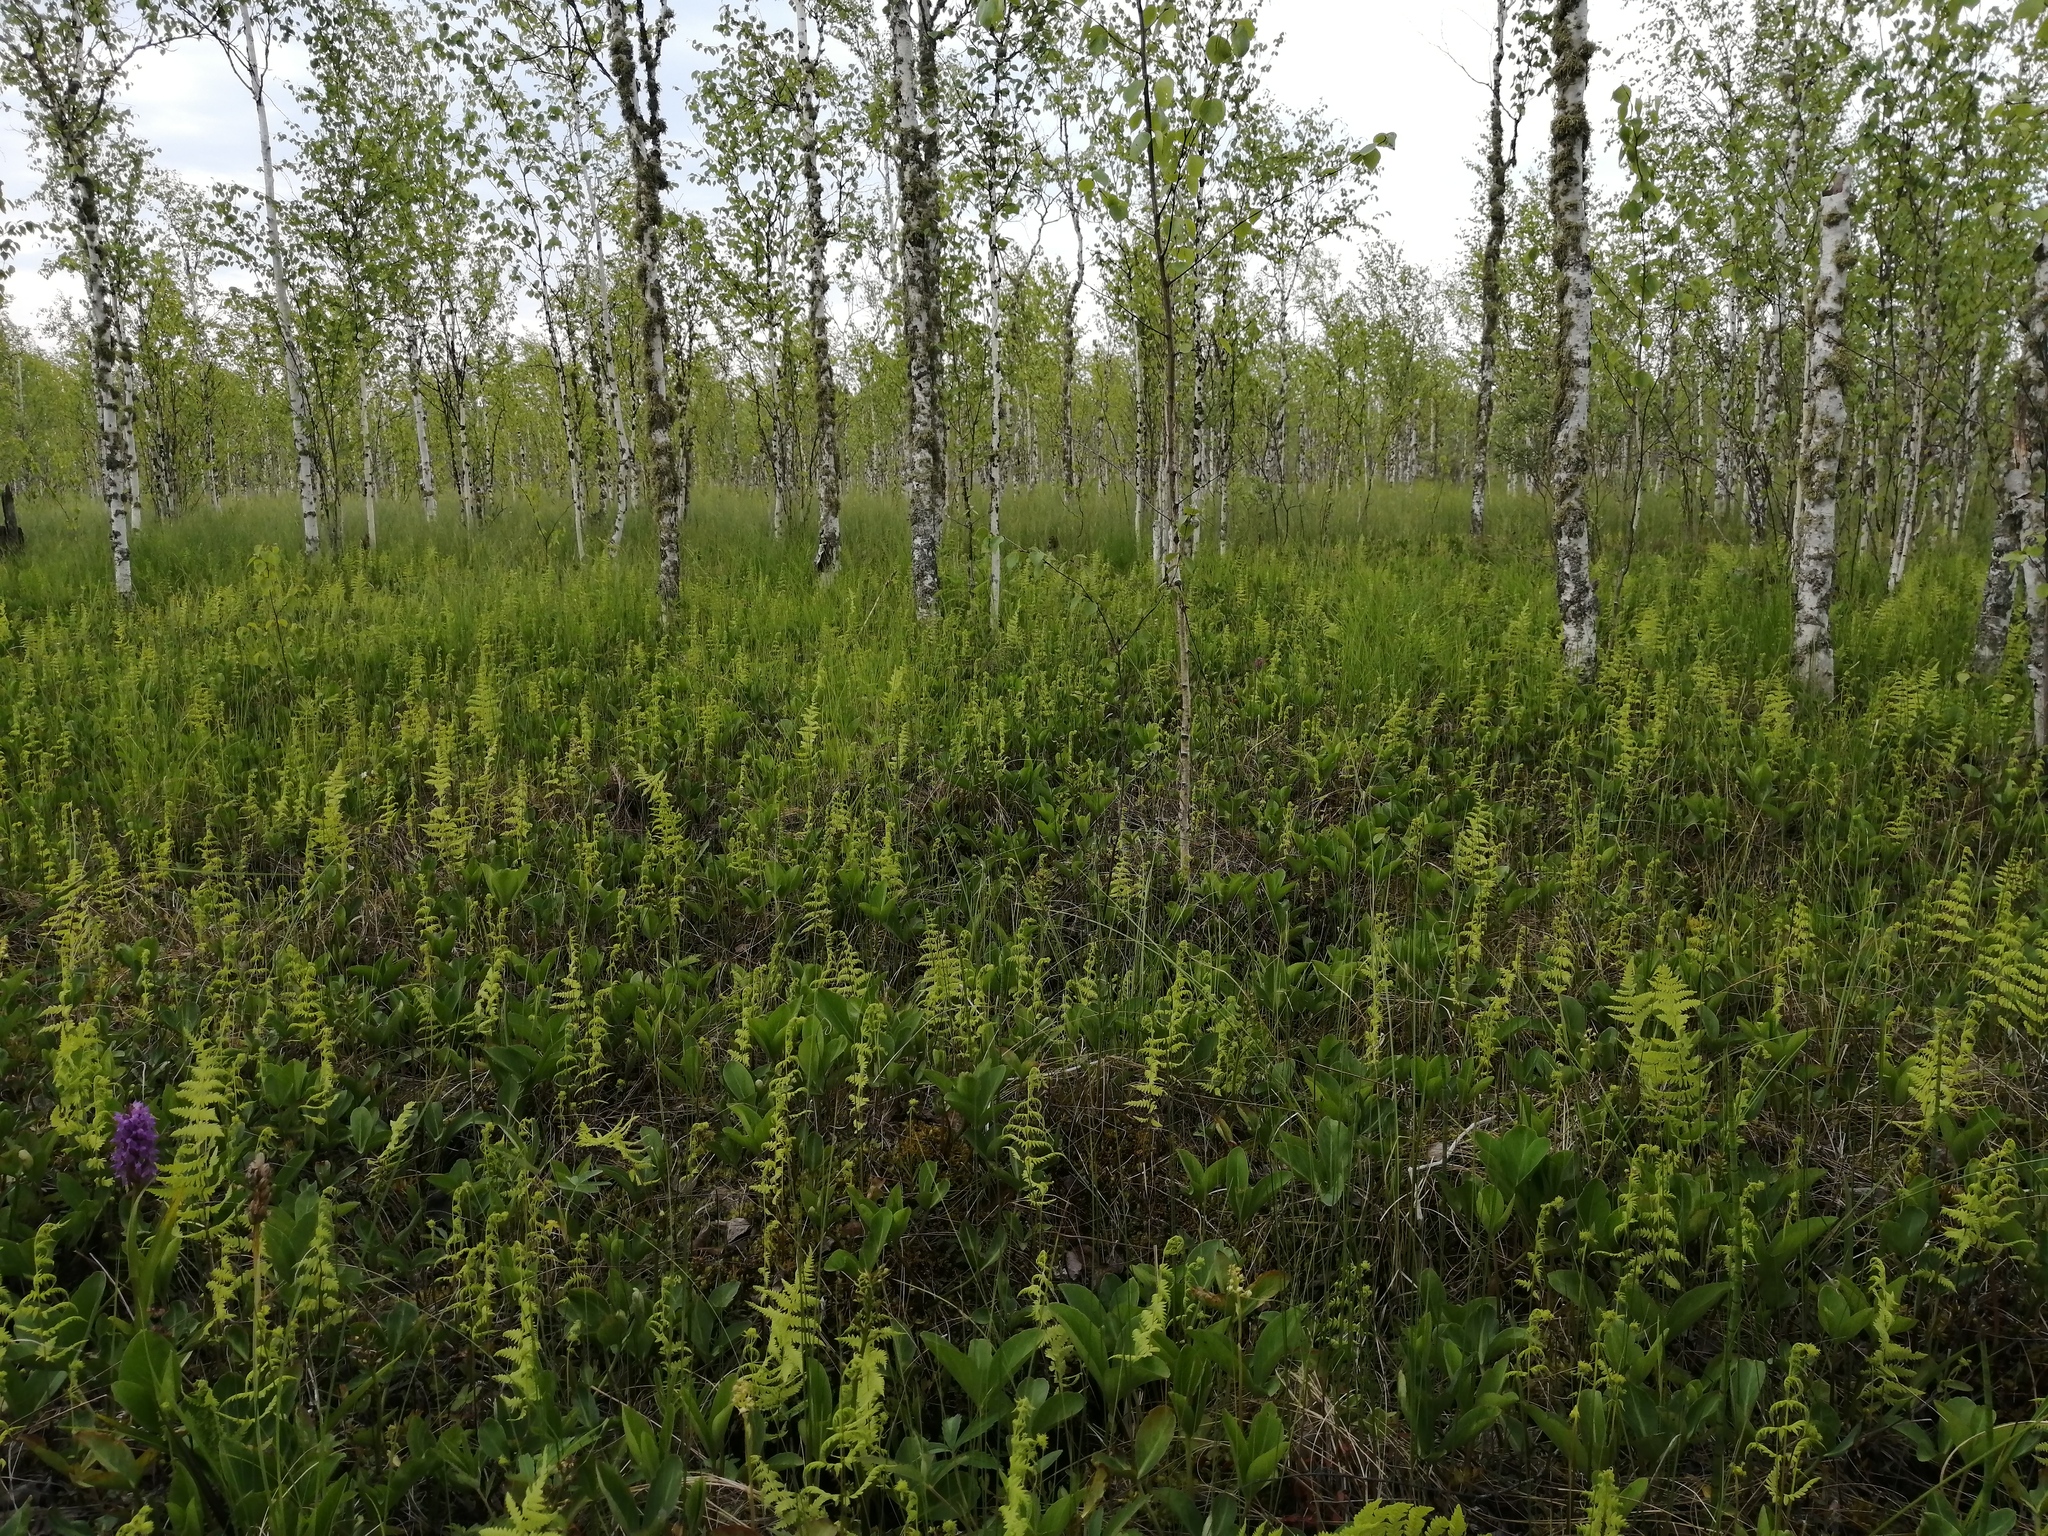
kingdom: Plantae
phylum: Tracheophyta
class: Polypodiopsida
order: Polypodiales
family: Thelypteridaceae
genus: Thelypteris
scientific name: Thelypteris palustris
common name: Marsh fern
